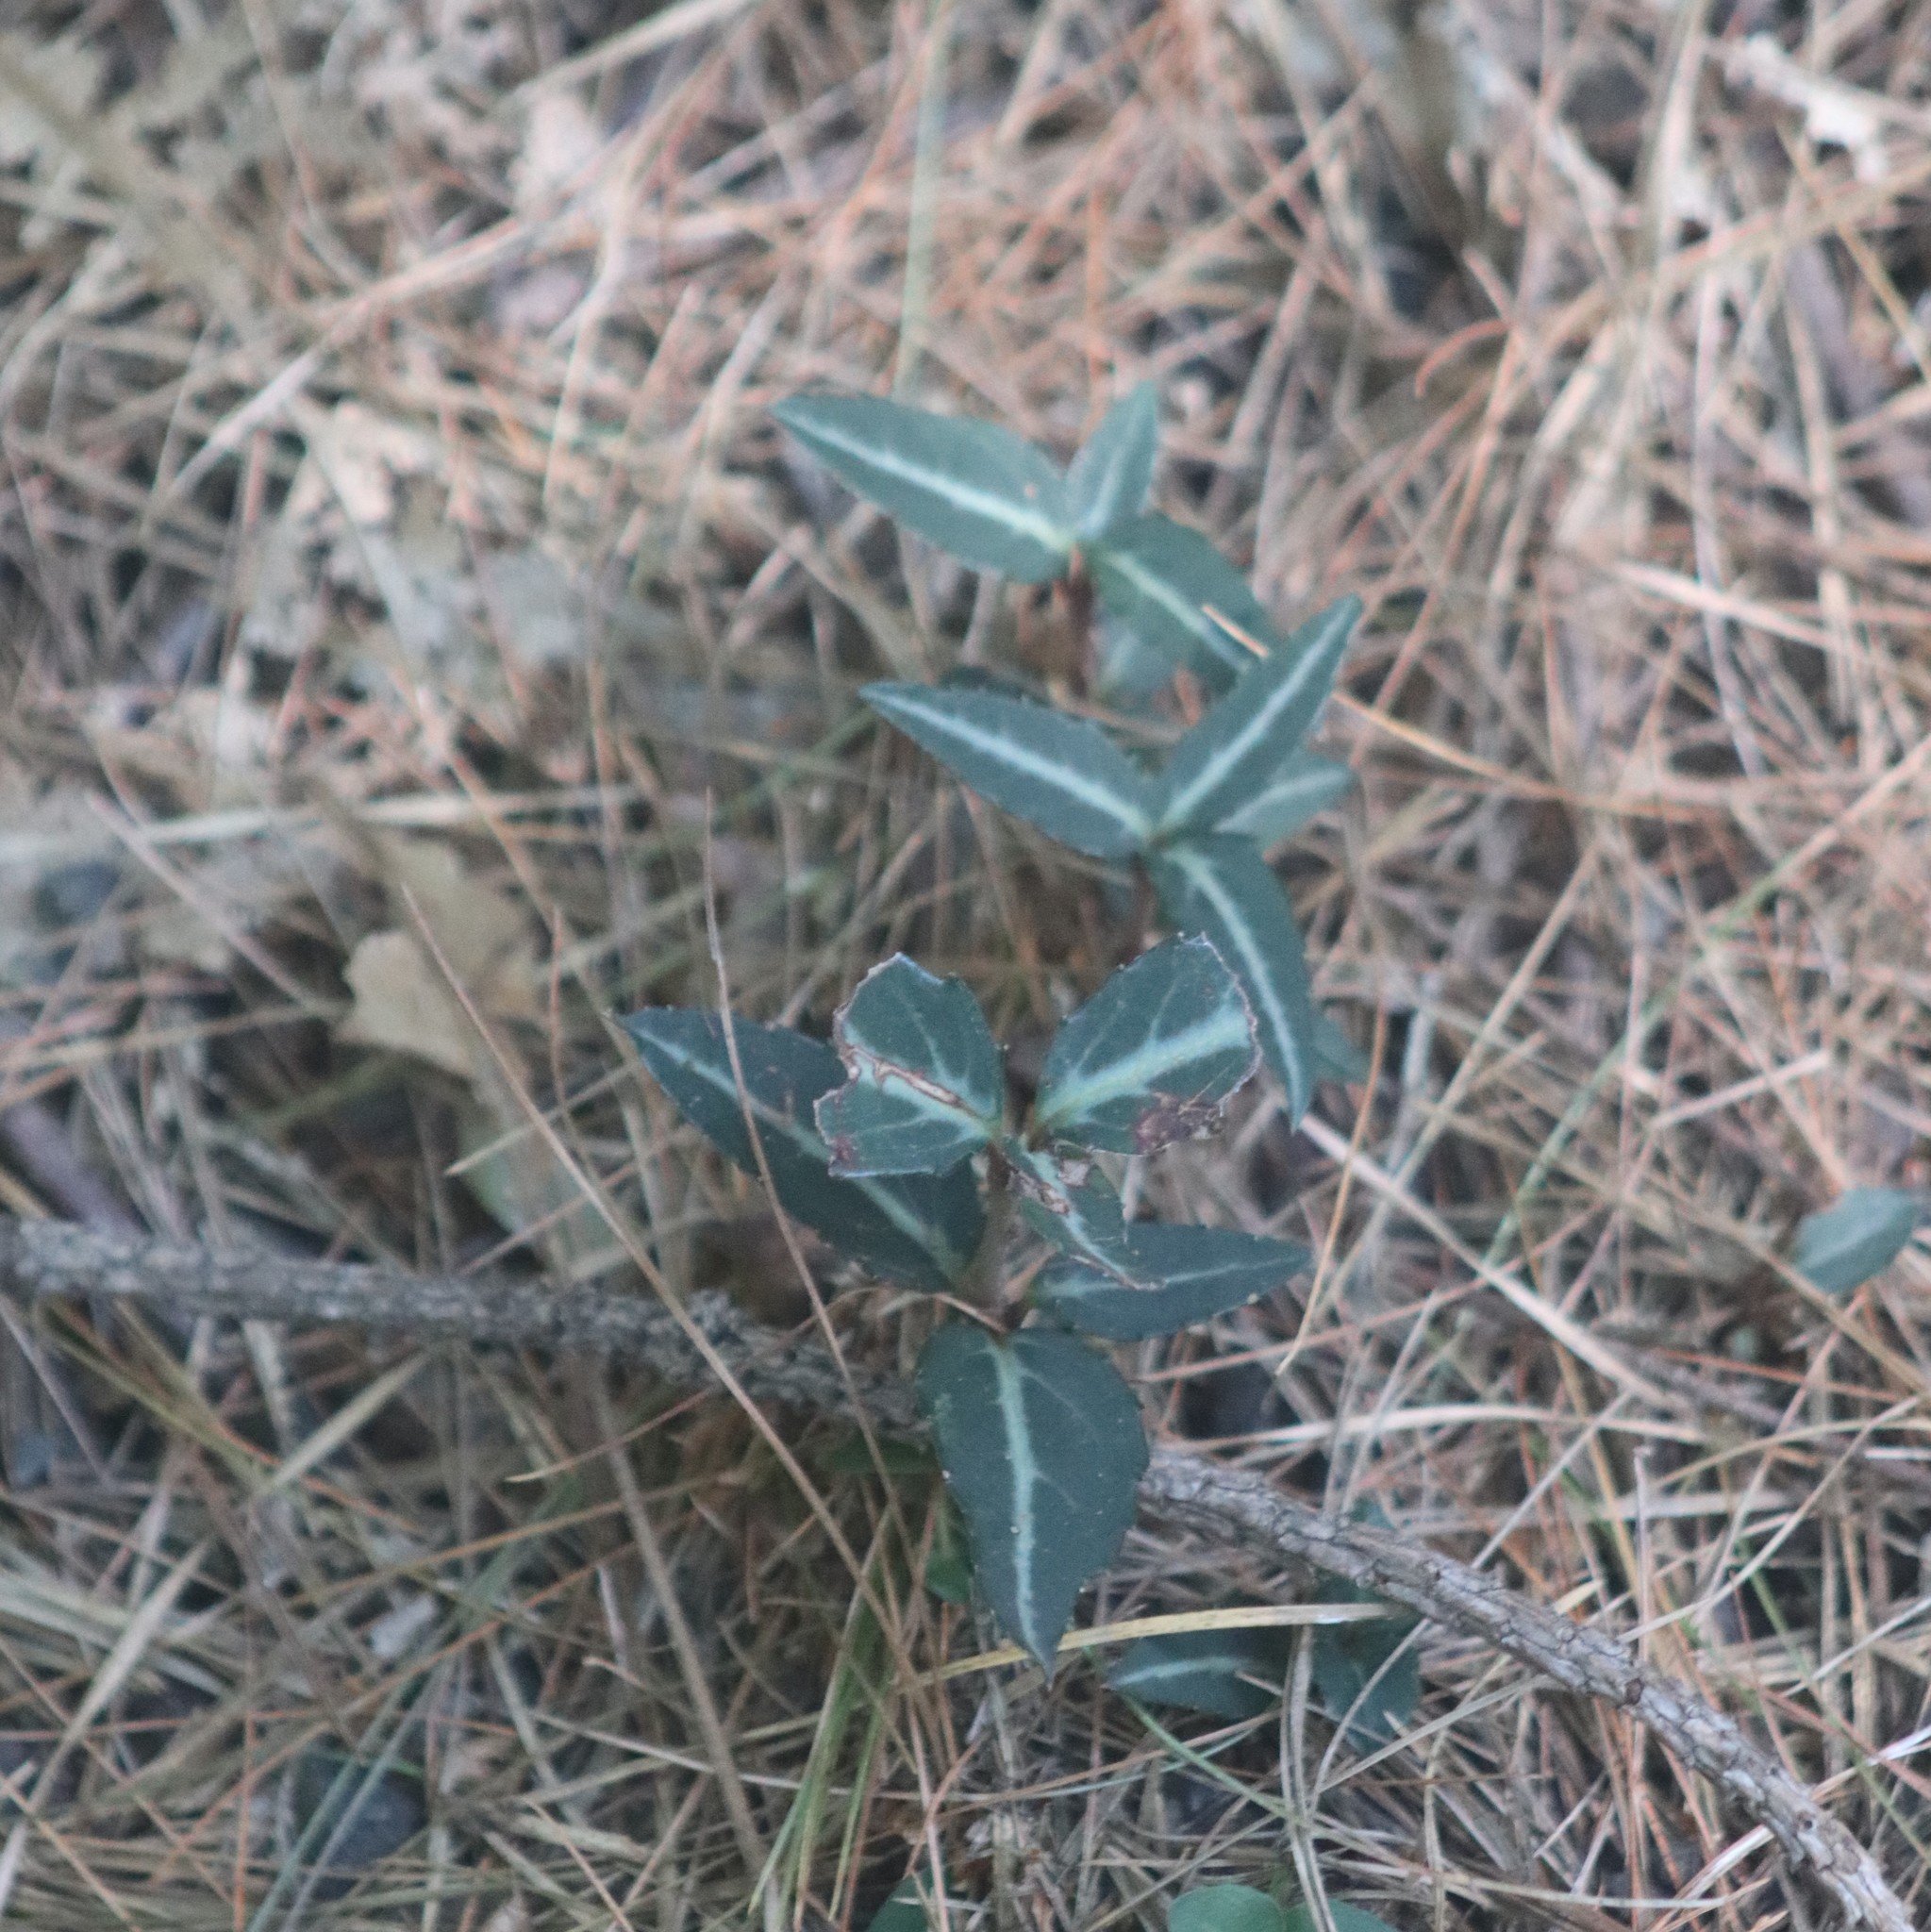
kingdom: Plantae
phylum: Tracheophyta
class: Magnoliopsida
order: Ericales
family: Ericaceae
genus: Chimaphila
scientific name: Chimaphila maculata
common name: Spotted pipsissewa
